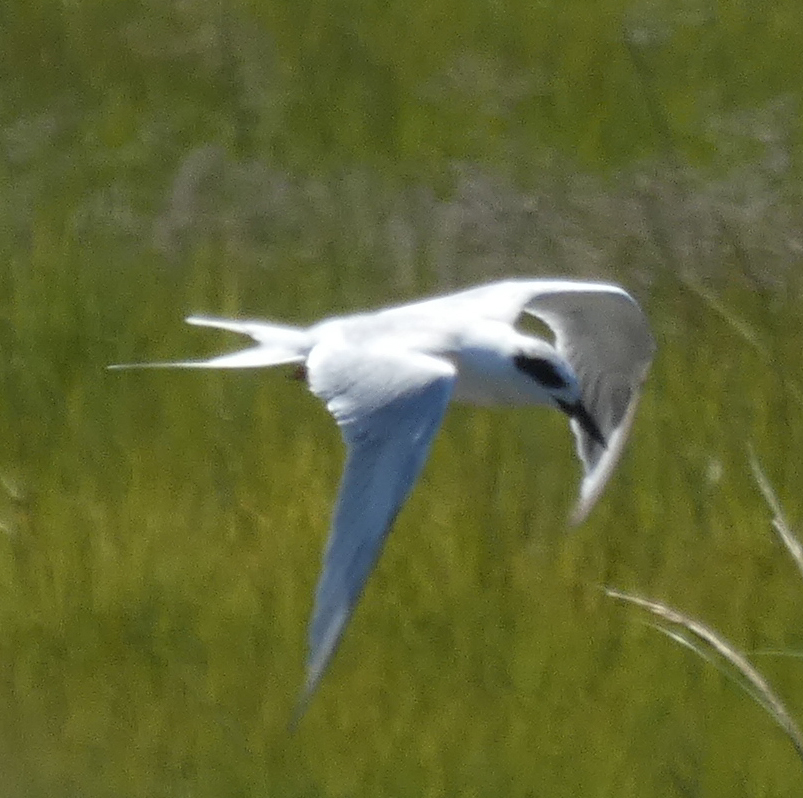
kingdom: Animalia
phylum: Chordata
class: Aves
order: Charadriiformes
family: Laridae
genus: Sterna
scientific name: Sterna forsteri
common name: Forster's tern
